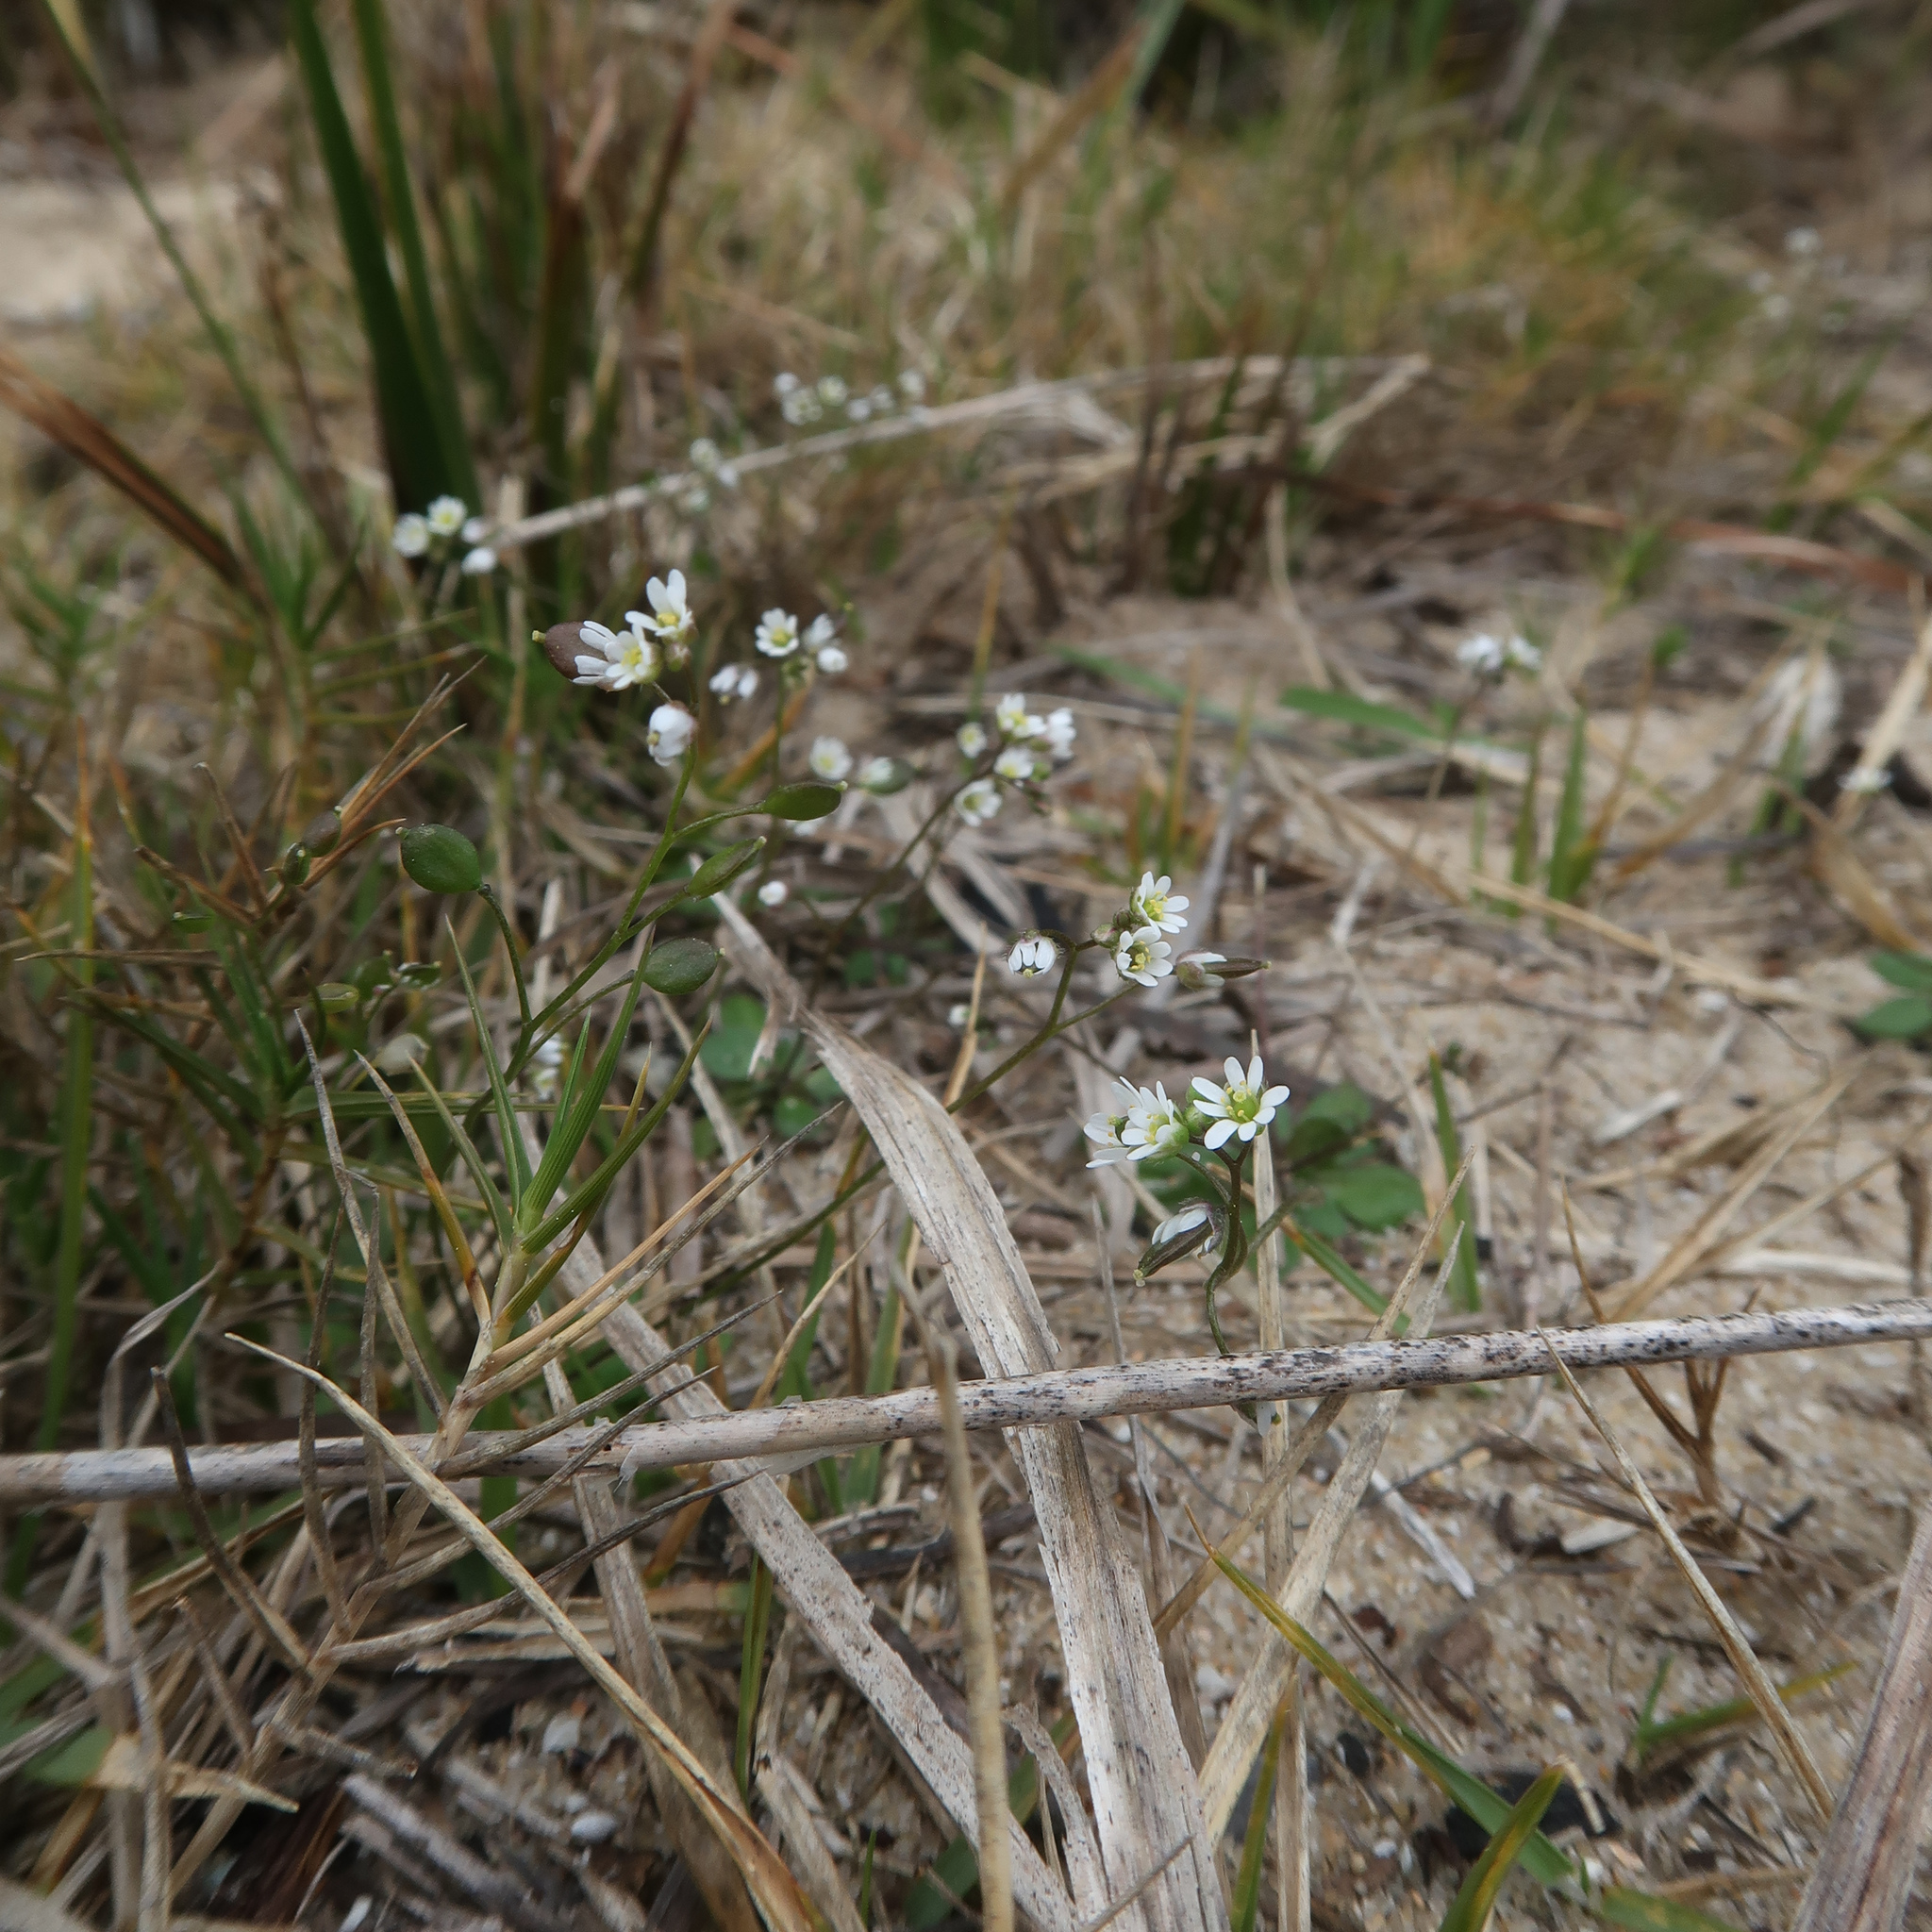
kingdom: Plantae
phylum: Tracheophyta
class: Magnoliopsida
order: Brassicales
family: Brassicaceae
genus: Draba
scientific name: Draba verna
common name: Spring draba
